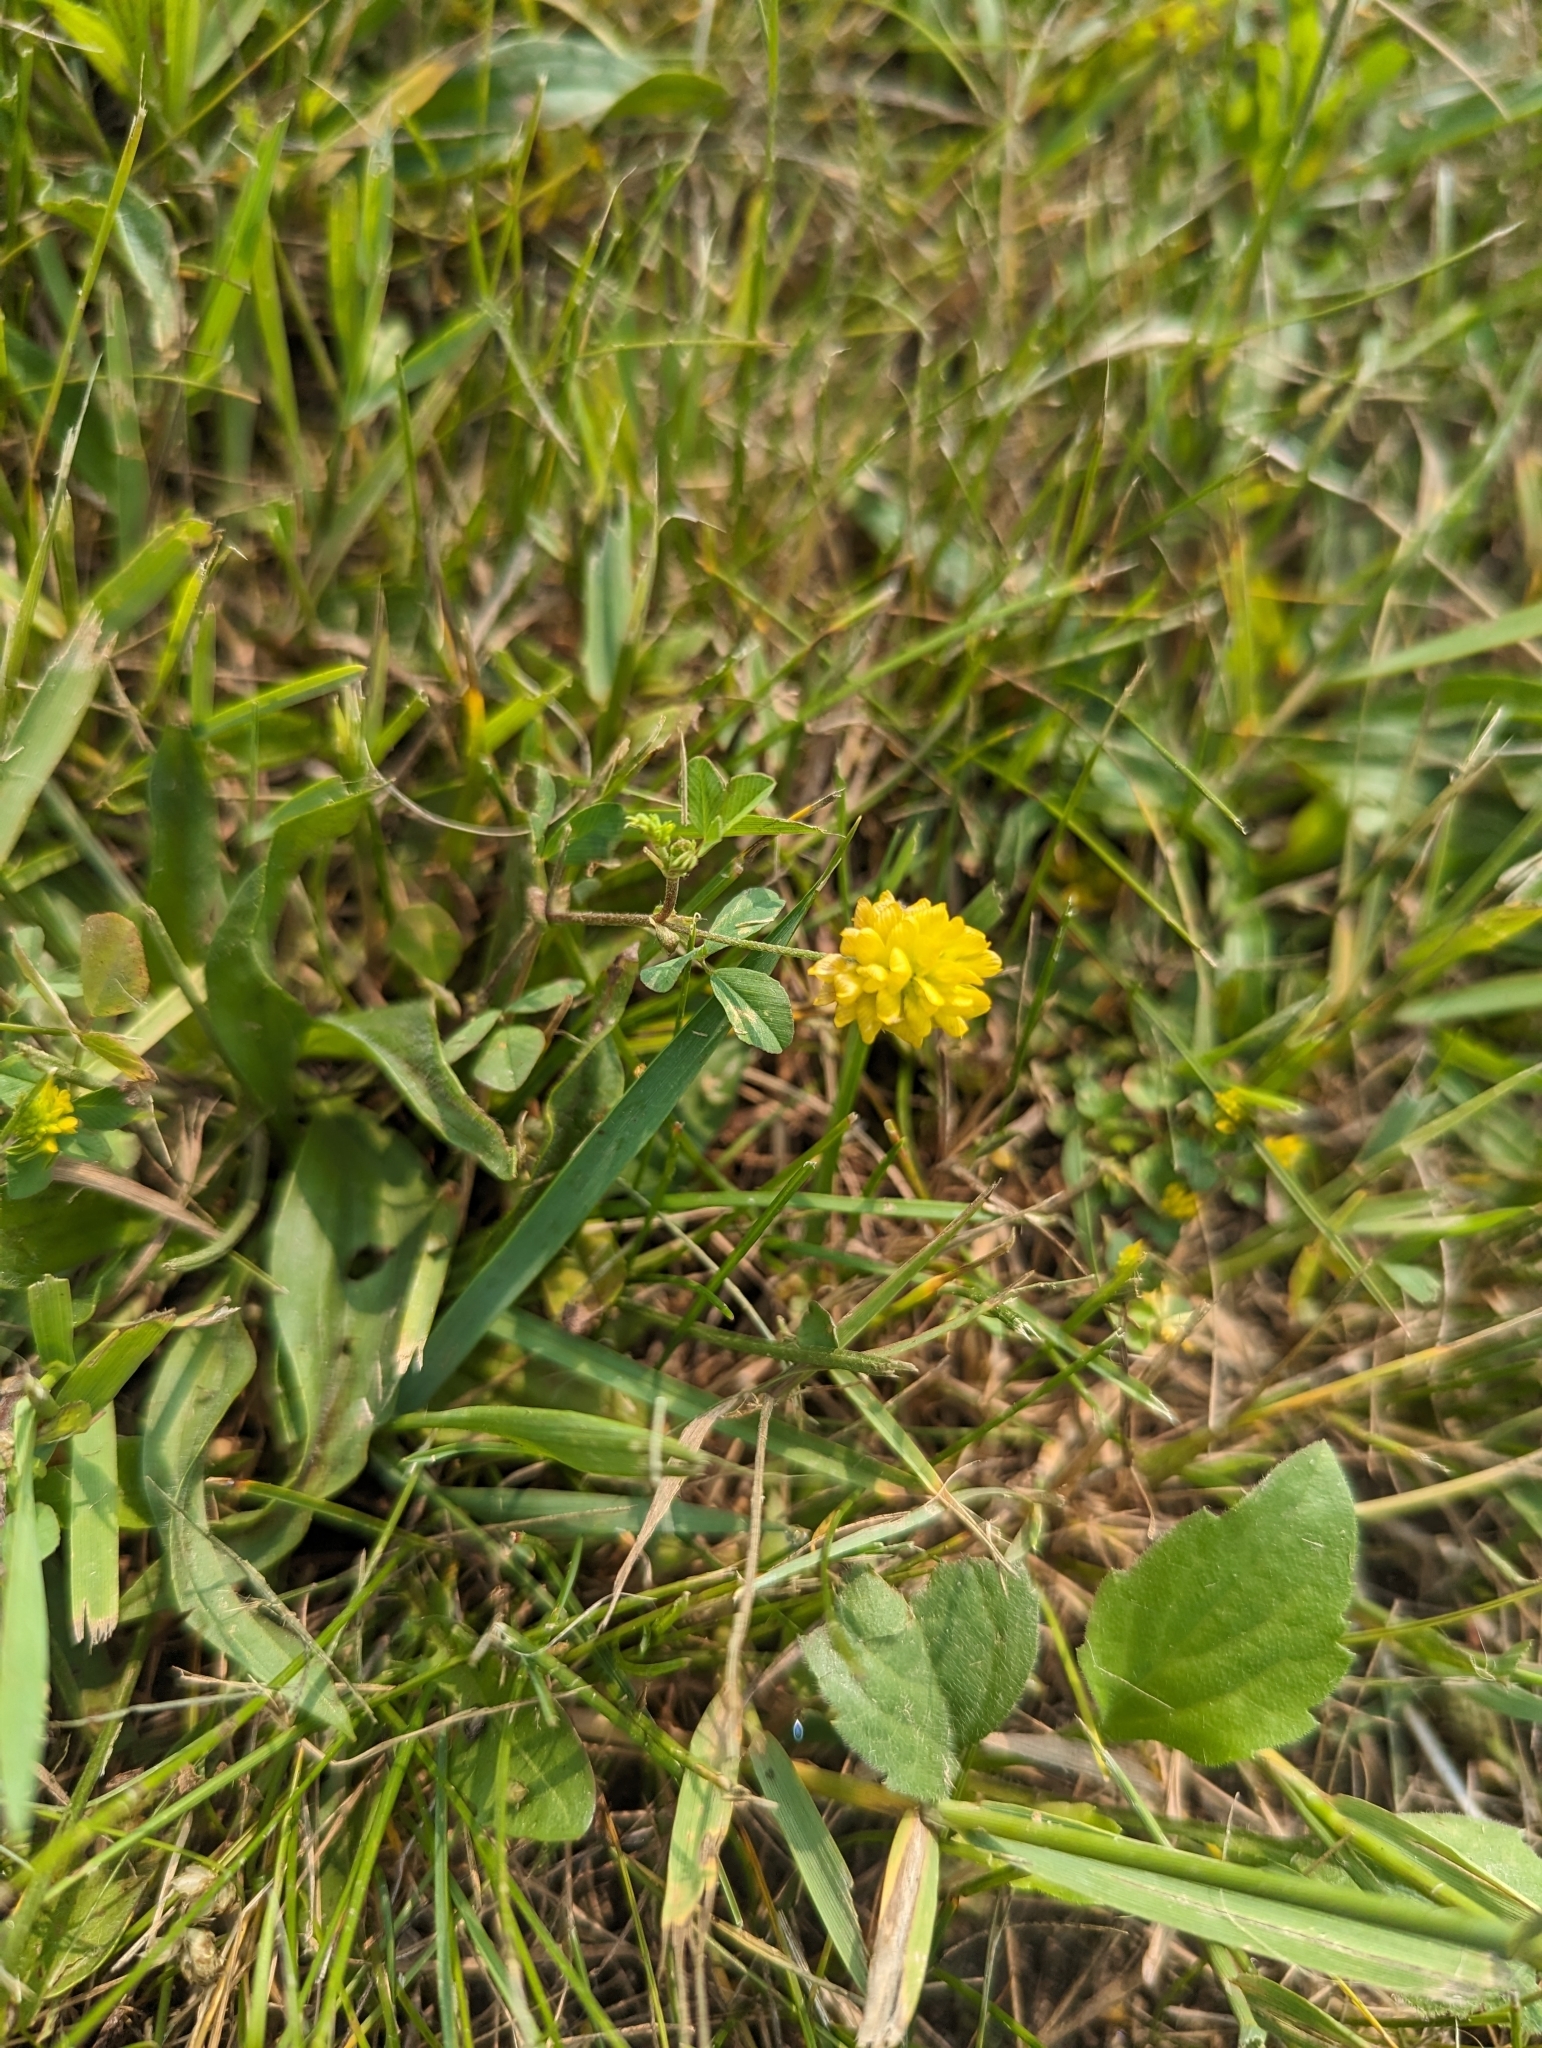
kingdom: Plantae
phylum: Tracheophyta
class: Magnoliopsida
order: Fabales
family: Fabaceae
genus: Trifolium
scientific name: Trifolium campestre
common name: Field clover
